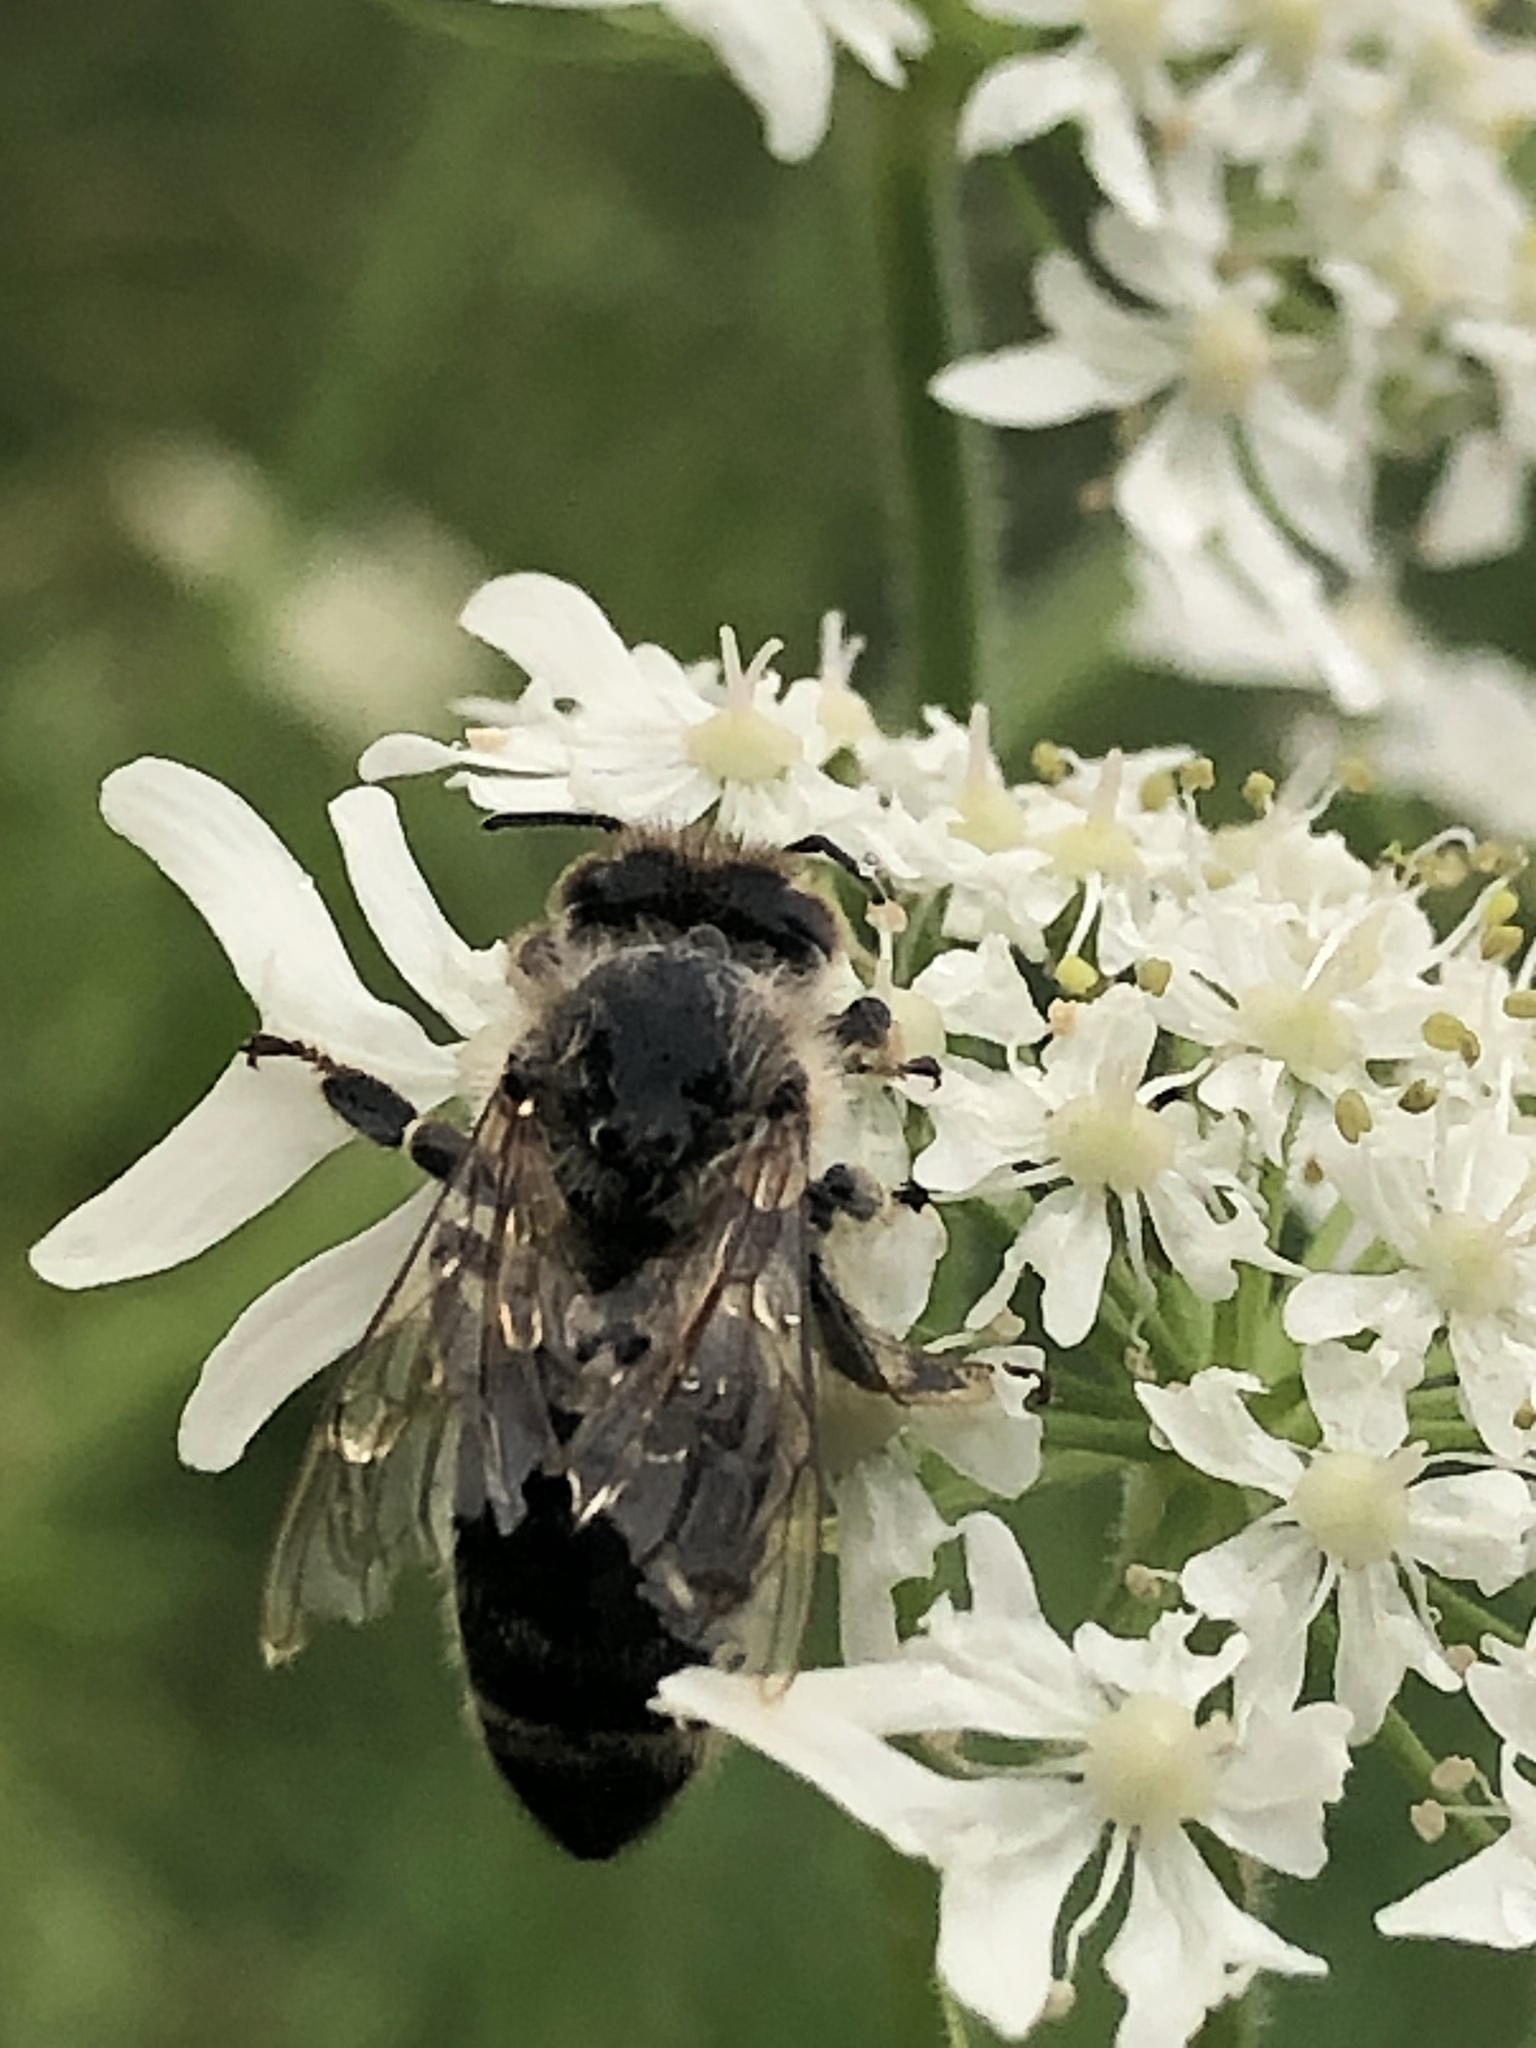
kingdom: Animalia
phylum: Arthropoda
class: Insecta
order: Hymenoptera
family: Apidae
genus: Apis
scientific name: Apis mellifera
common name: Honey bee
